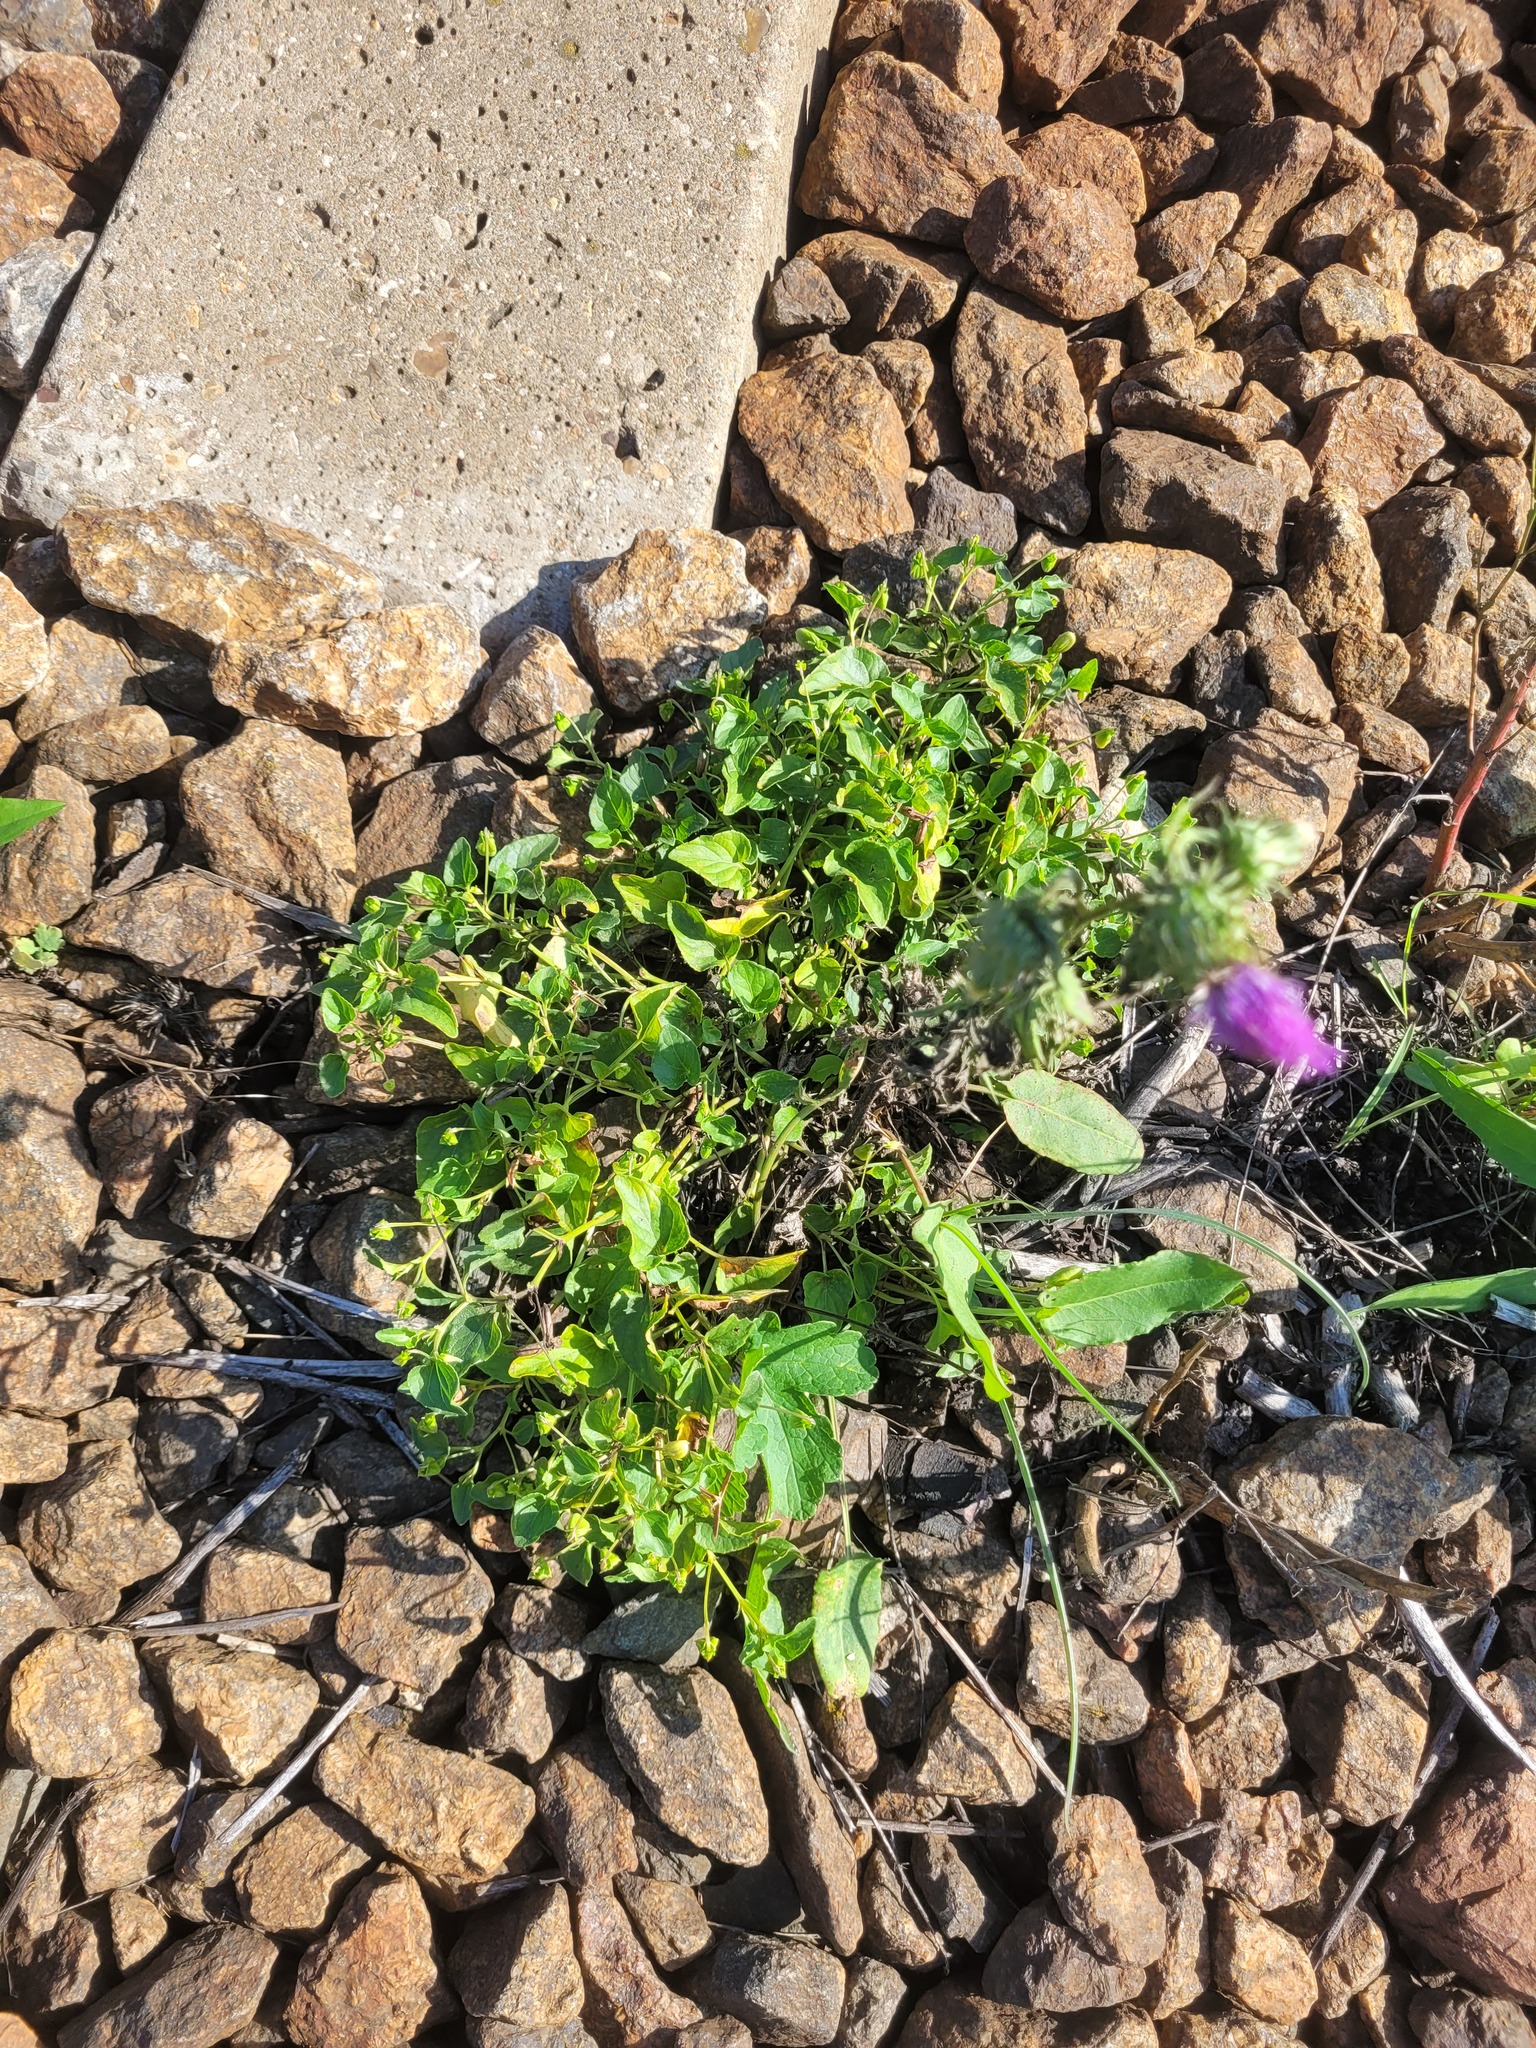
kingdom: Plantae
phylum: Tracheophyta
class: Magnoliopsida
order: Malpighiales
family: Violaceae
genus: Viola
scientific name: Viola canina
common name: Heath dog-violet
